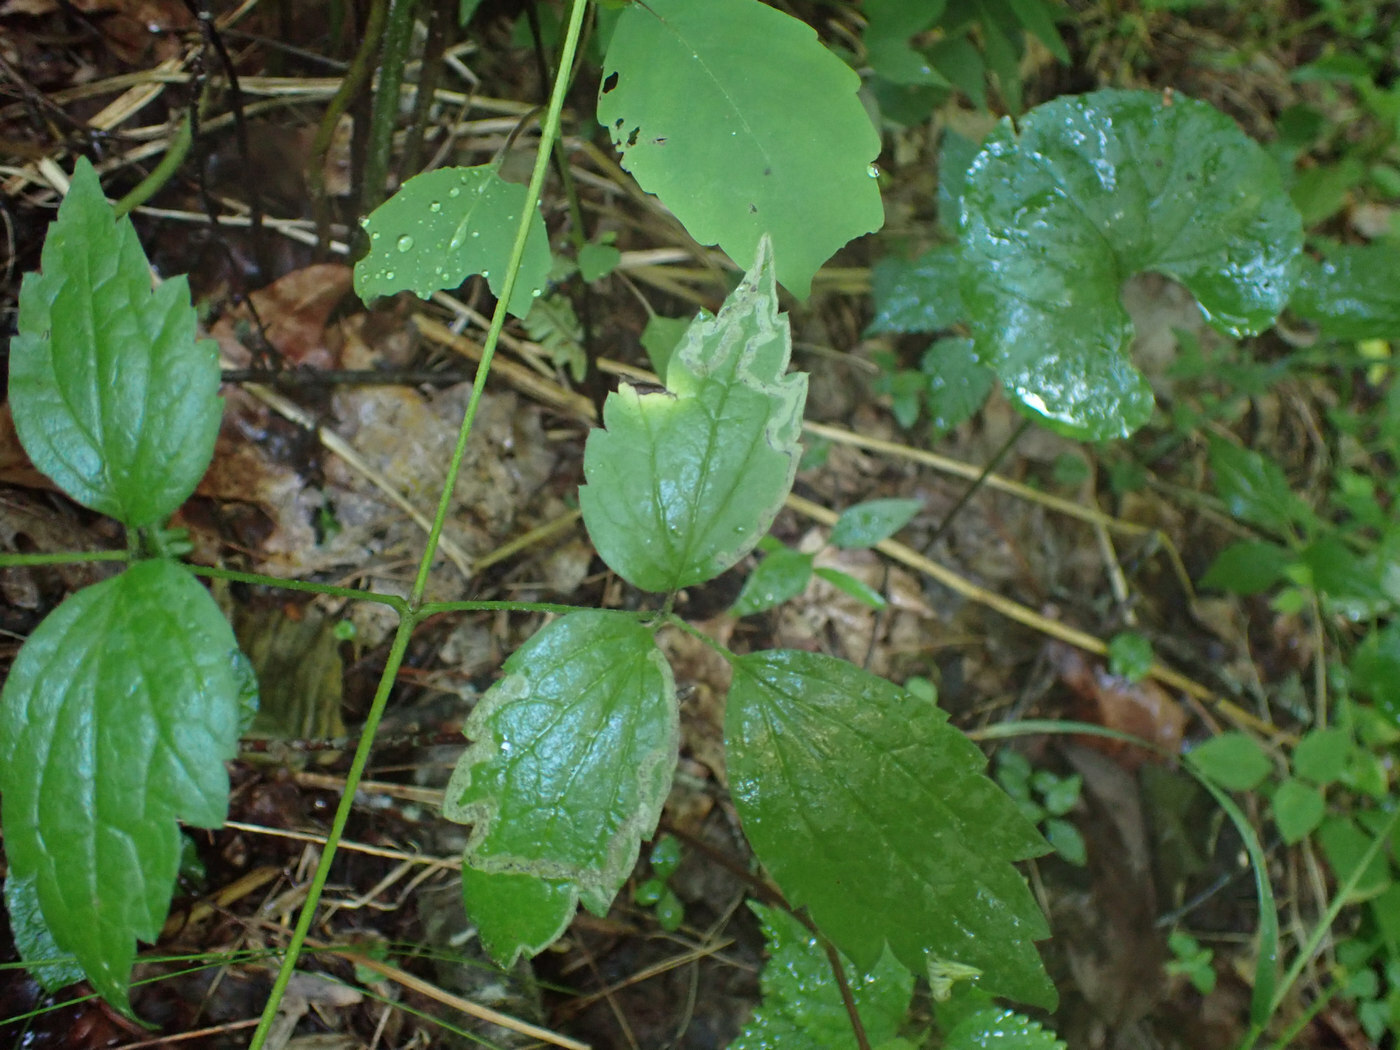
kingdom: Animalia
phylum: Arthropoda
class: Insecta
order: Diptera
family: Agromyzidae
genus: Phytomyza
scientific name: Phytomyza loewii
